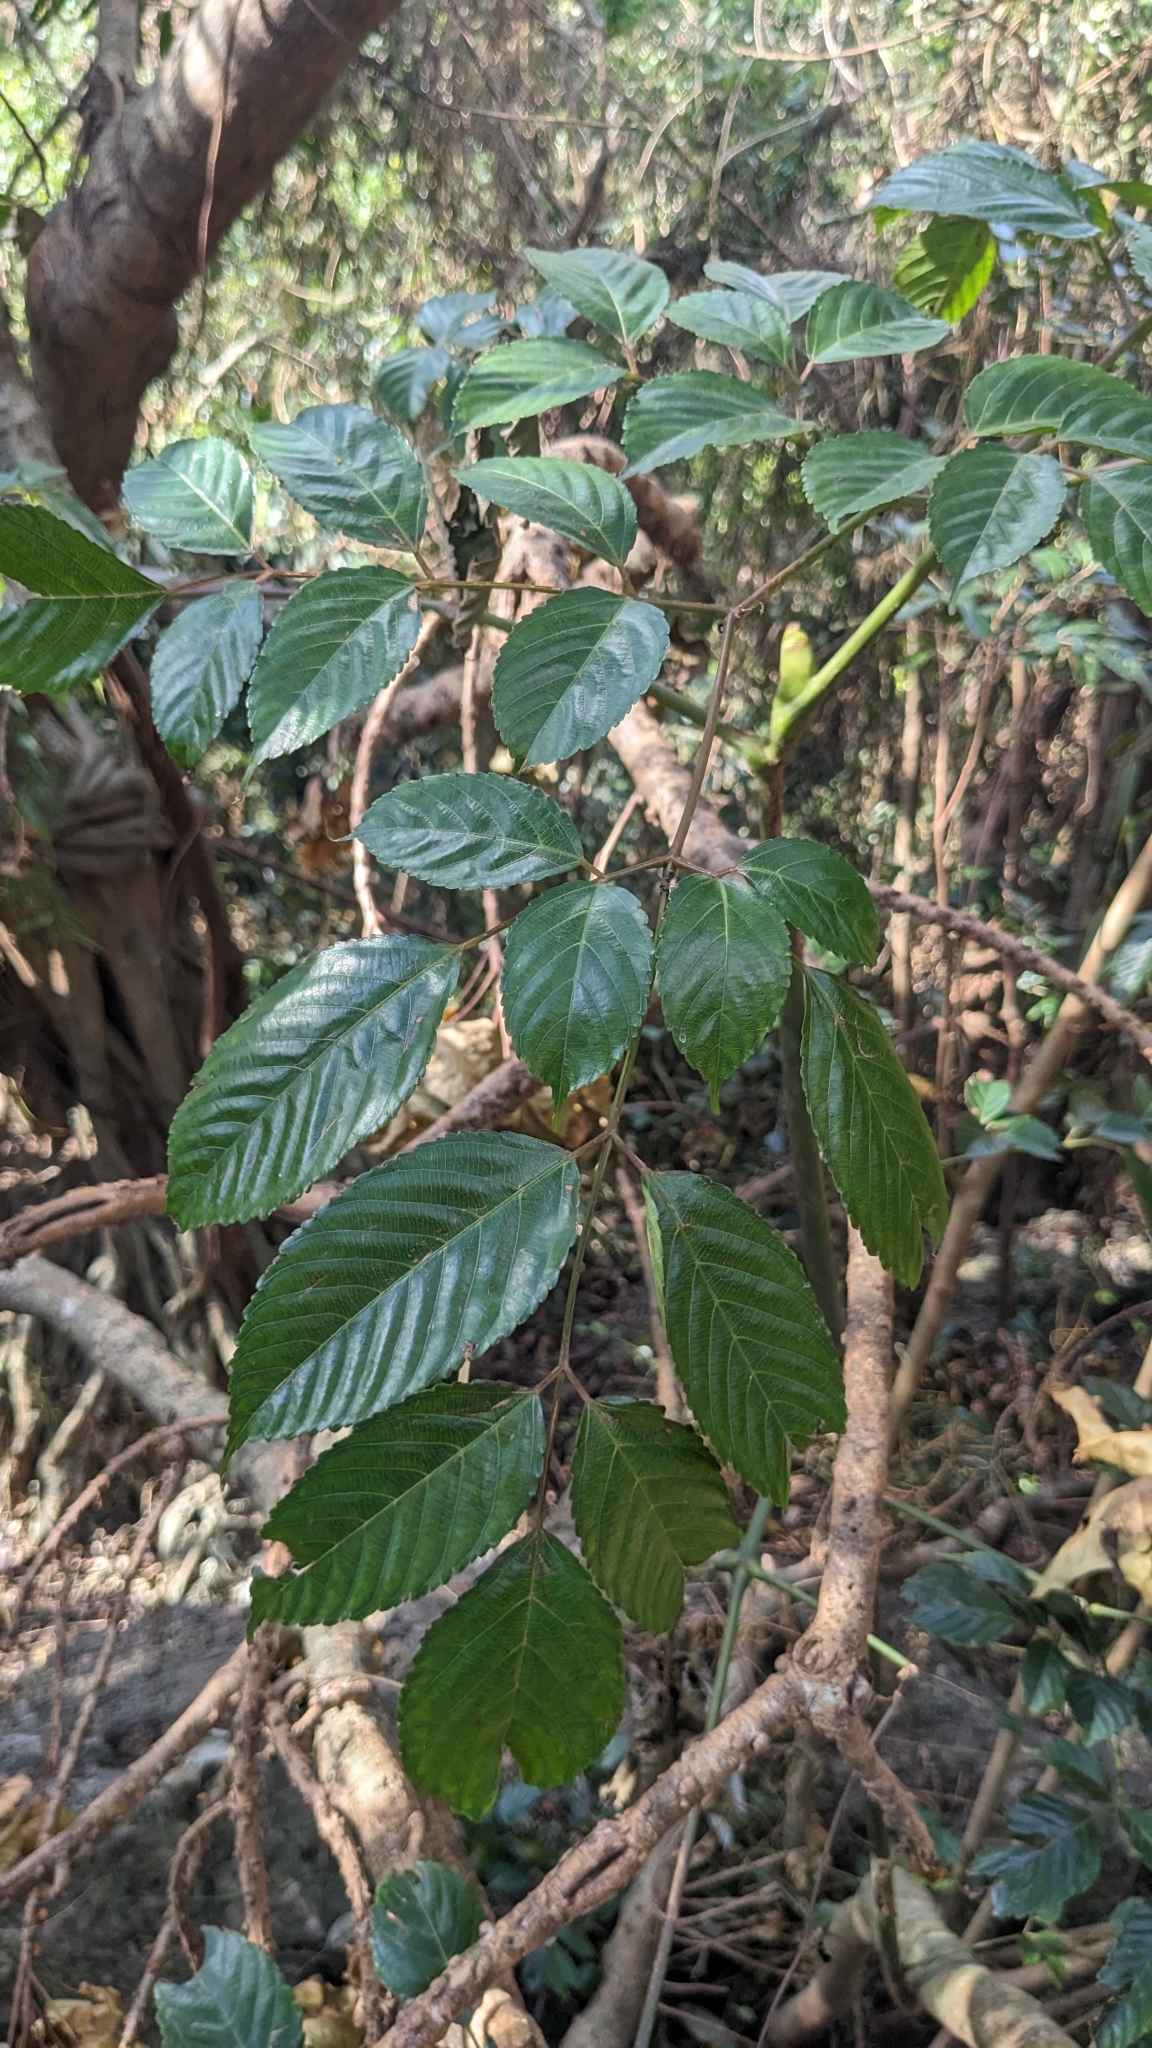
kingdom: Plantae
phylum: Tracheophyta
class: Magnoliopsida
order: Vitales
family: Vitaceae
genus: Leea
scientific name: Leea guineensis
